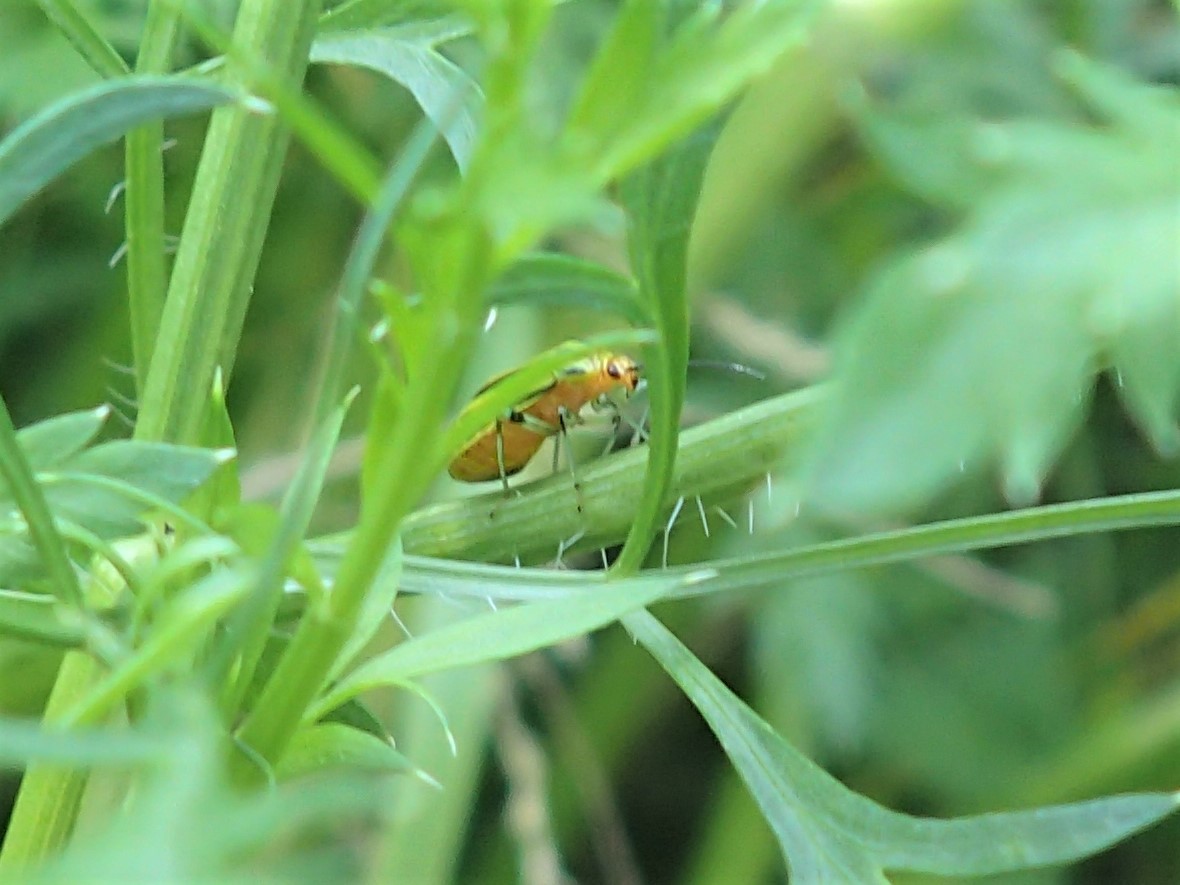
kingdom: Animalia
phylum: Arthropoda
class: Insecta
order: Hemiptera
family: Miridae
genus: Poecilocapsus
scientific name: Poecilocapsus lineatus
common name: Four-lined plant bug
